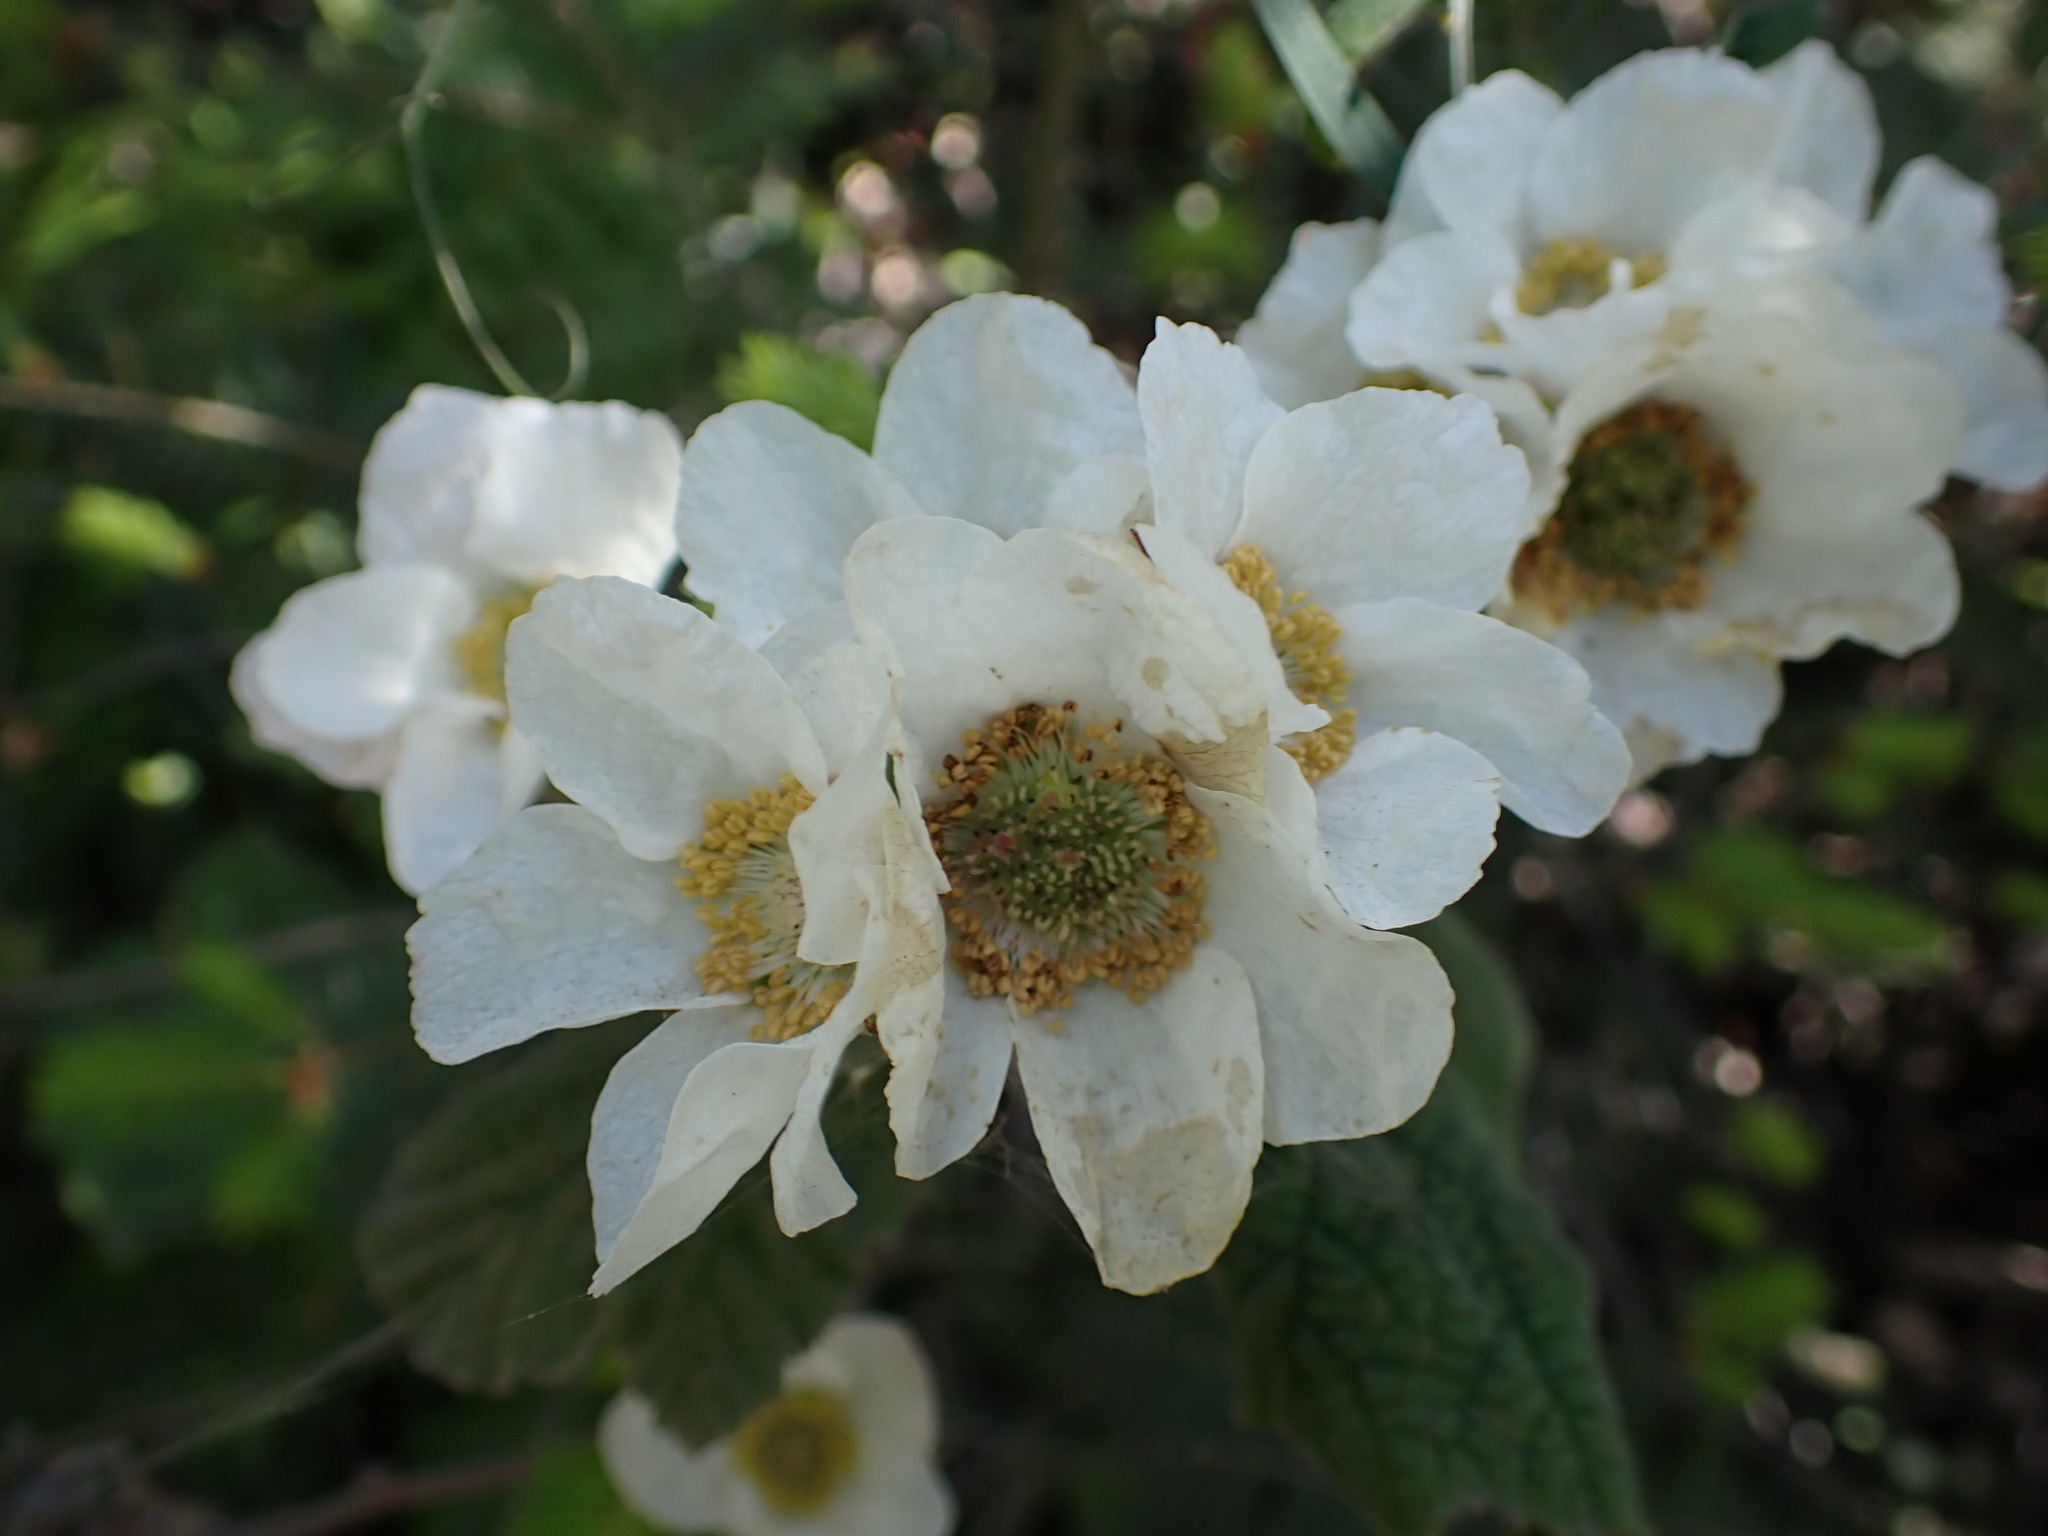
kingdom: Plantae
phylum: Tracheophyta
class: Magnoliopsida
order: Rosales
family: Rosaceae
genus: Rubus
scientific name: Rubus parviflorus
